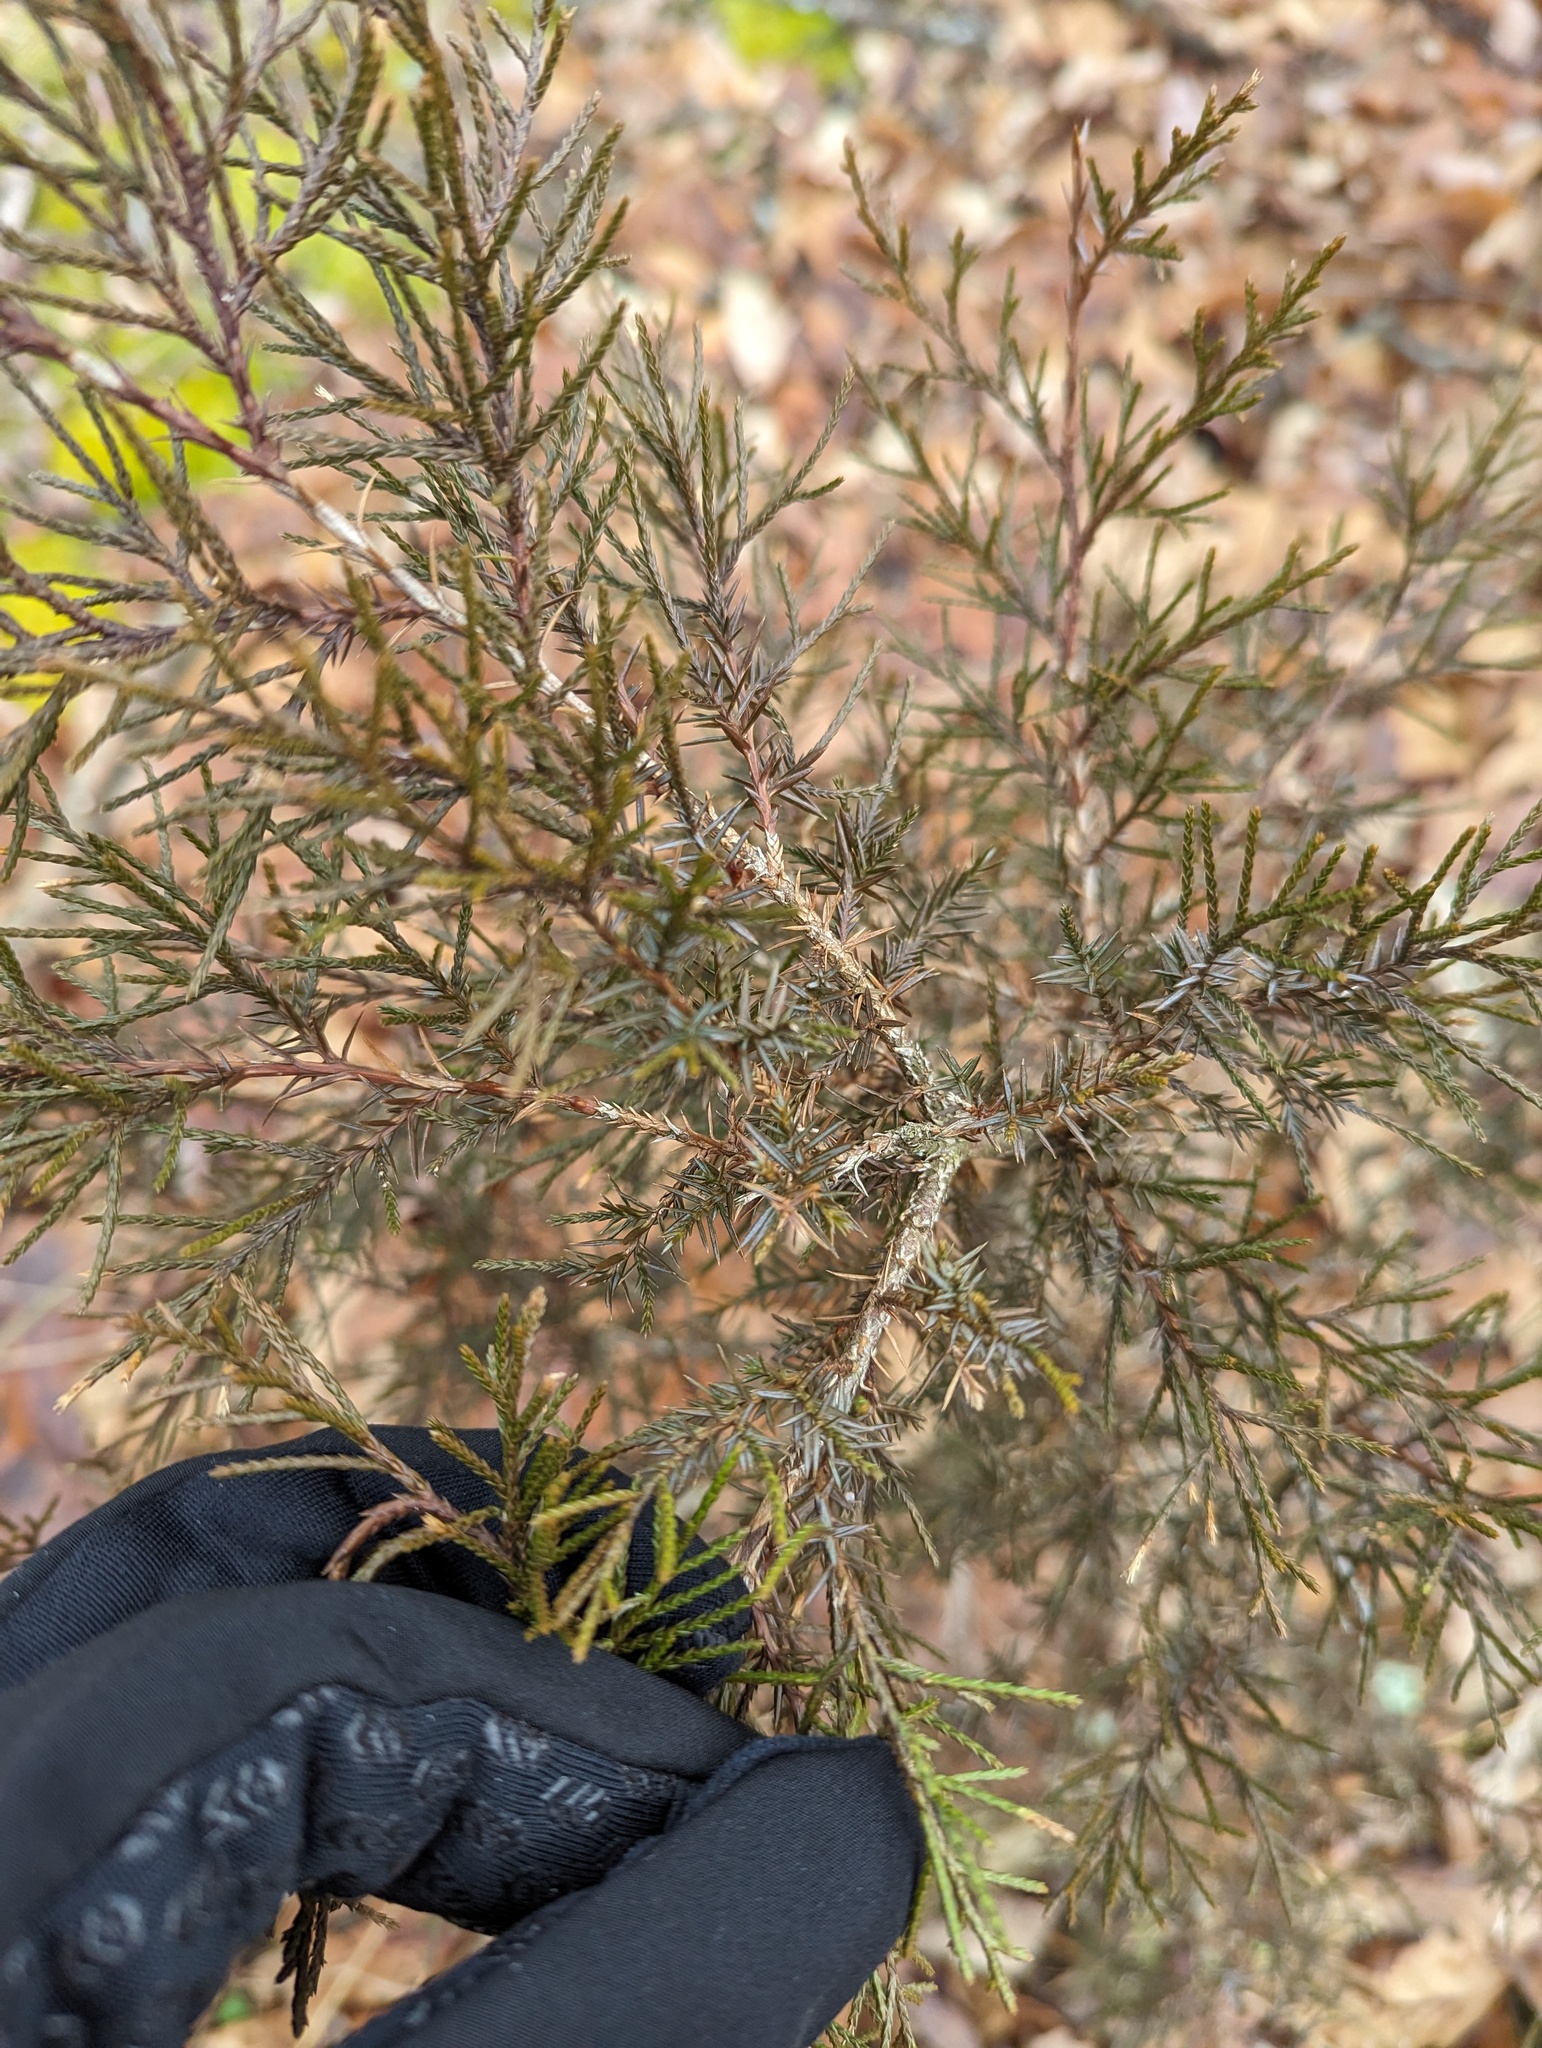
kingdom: Plantae
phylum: Tracheophyta
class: Pinopsida
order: Pinales
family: Cupressaceae
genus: Juniperus
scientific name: Juniperus virginiana
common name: Red juniper
